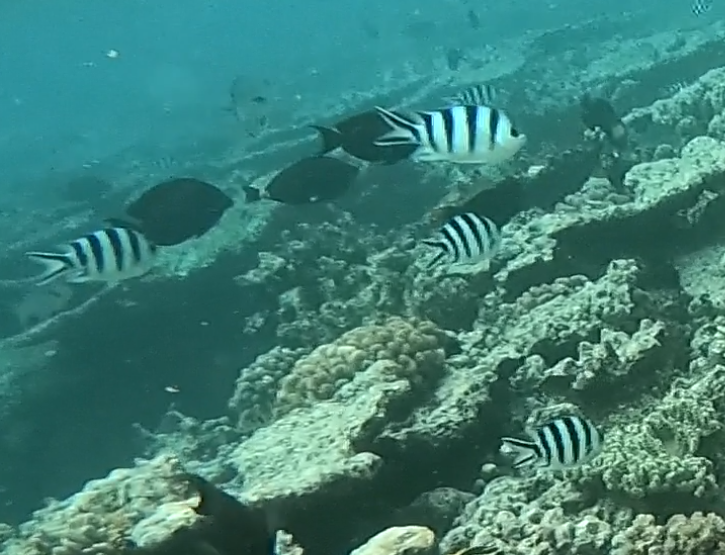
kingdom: Animalia
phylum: Chordata
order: Perciformes
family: Pomacentridae
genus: Abudefduf
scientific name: Abudefduf sexfasciatus
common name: Scissortail sergeant
